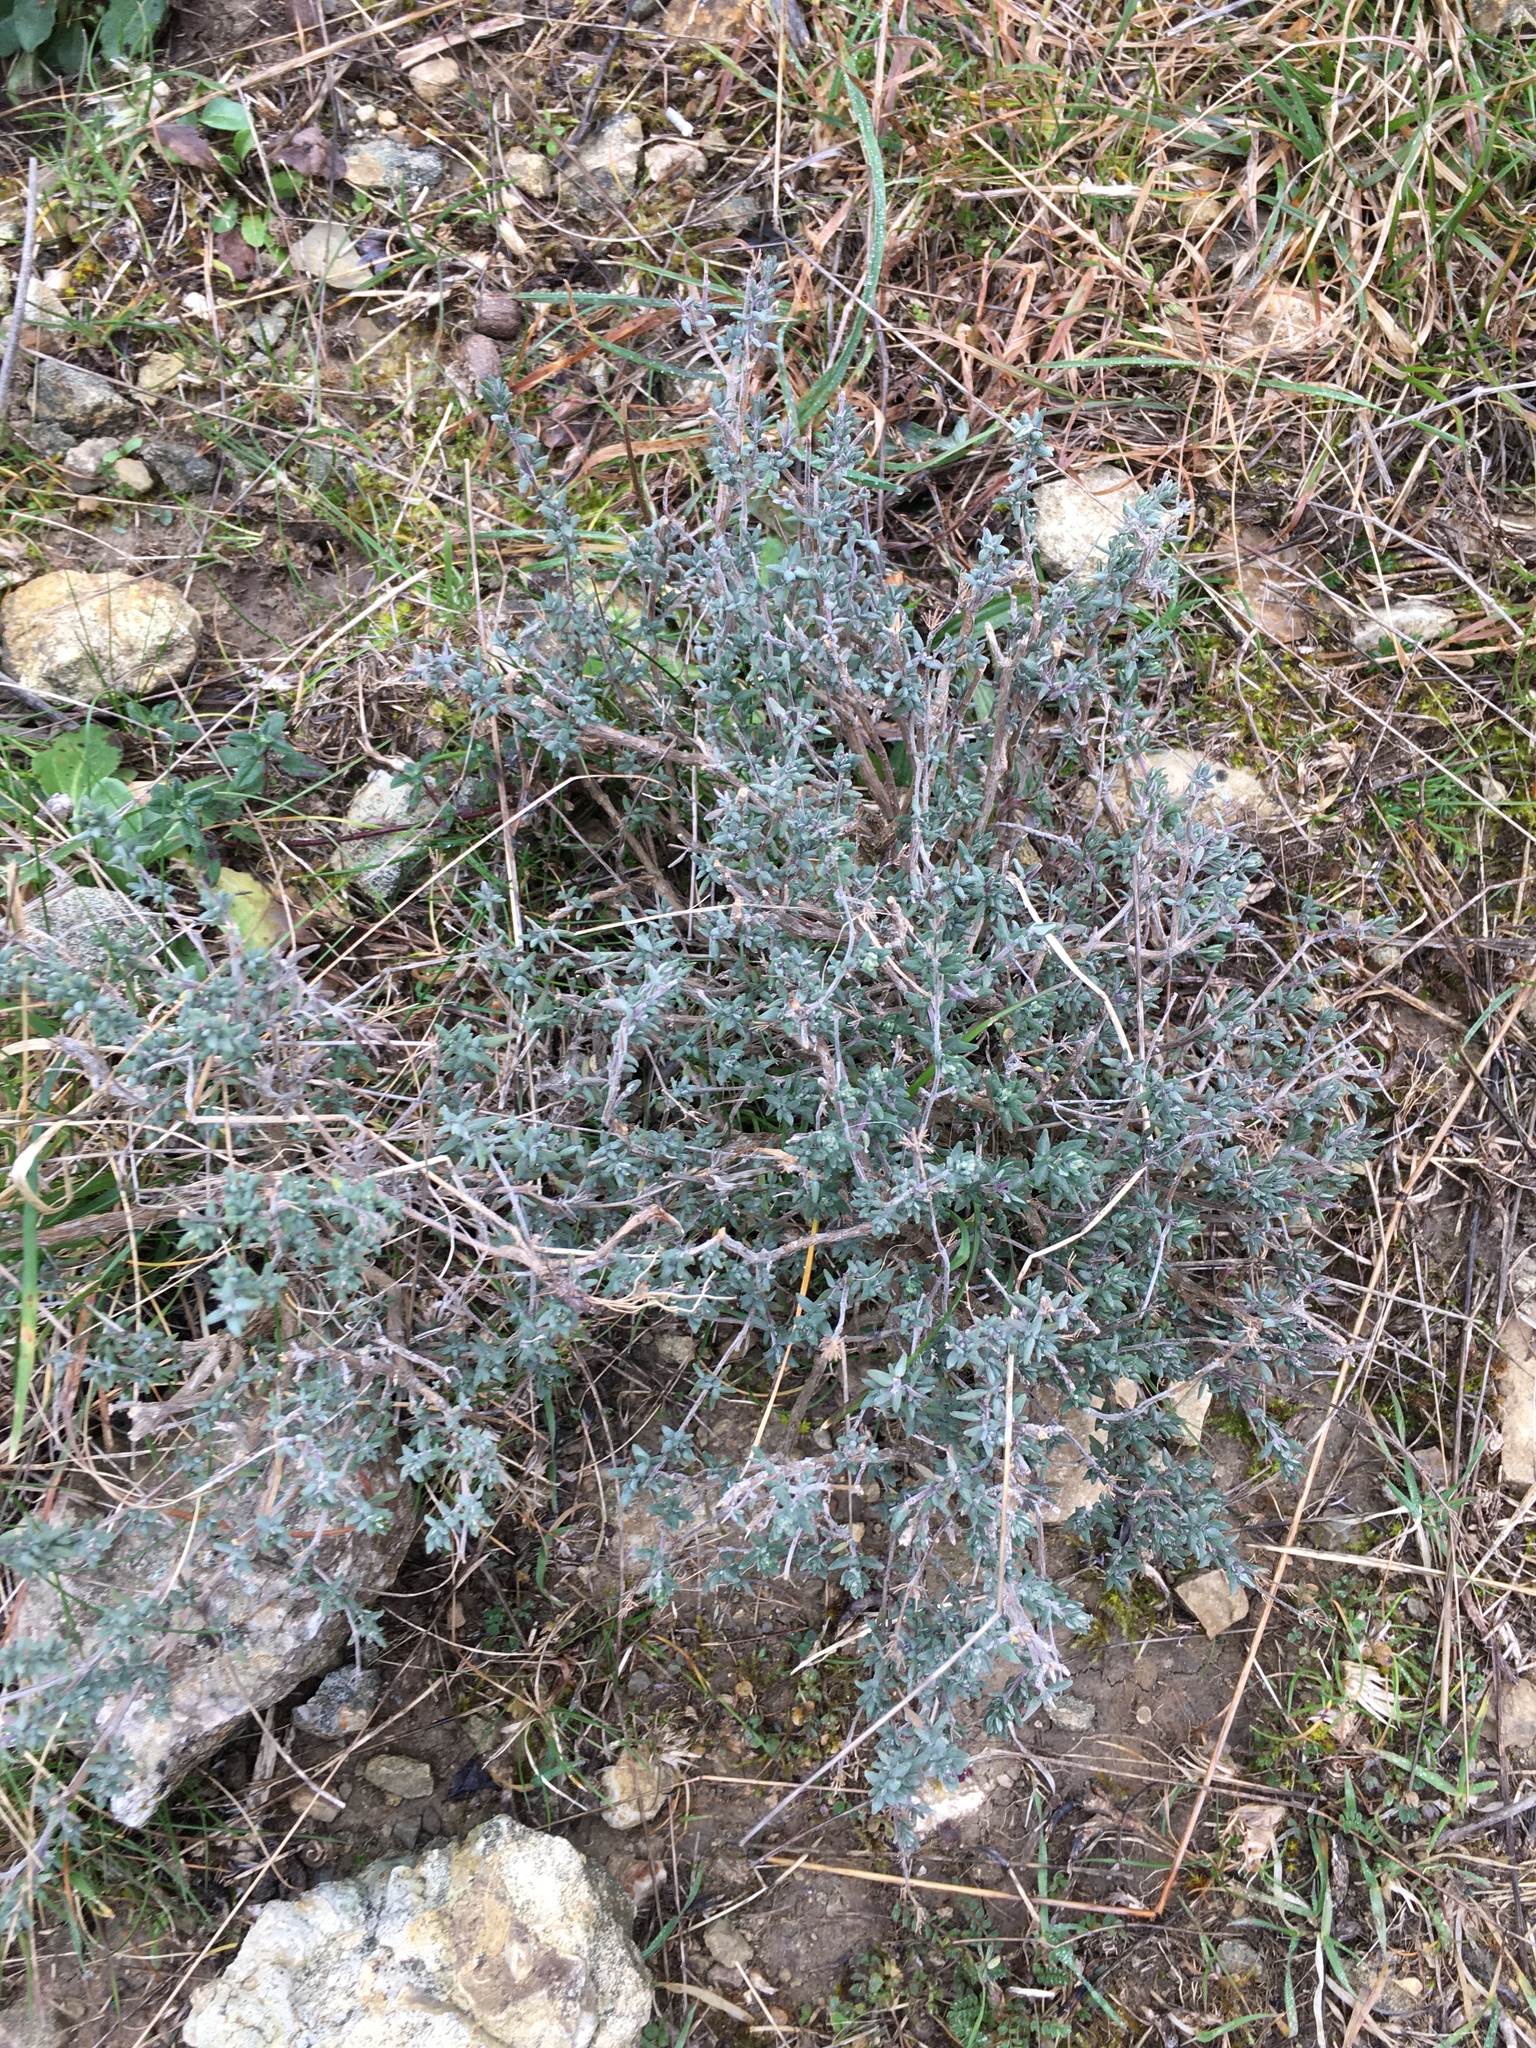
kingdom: Plantae
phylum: Tracheophyta
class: Magnoliopsida
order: Lamiales
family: Lamiaceae
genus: Thymus
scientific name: Thymus vulgaris
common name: Garden thyme
